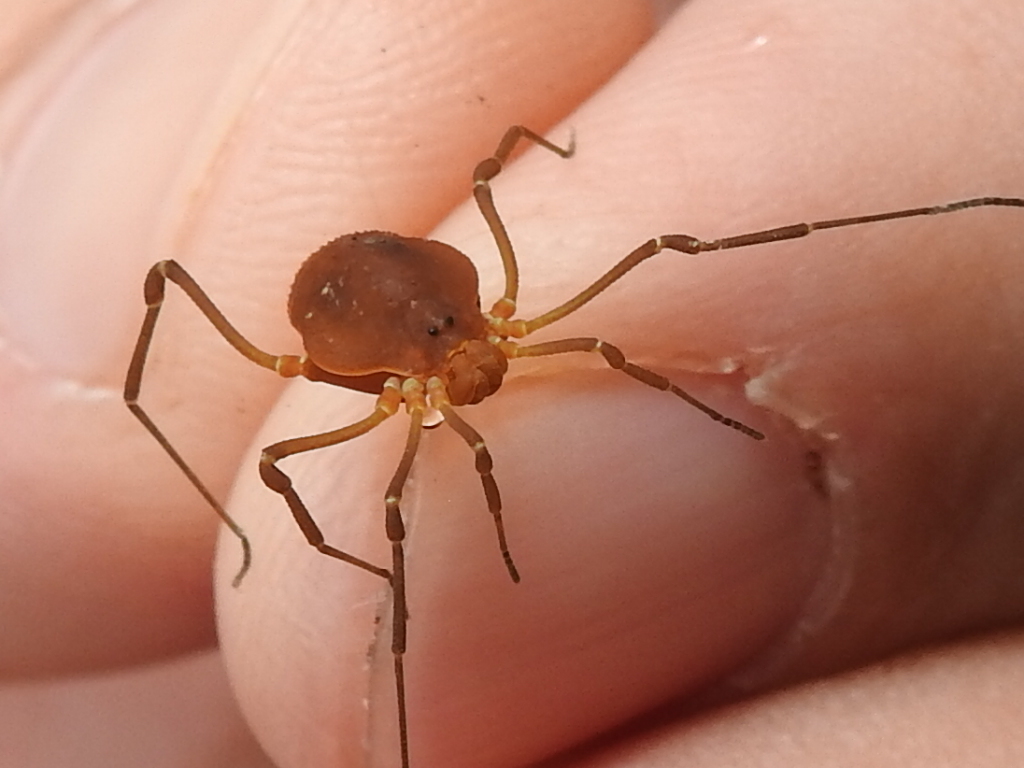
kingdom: Animalia
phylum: Arthropoda
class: Arachnida
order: Opiliones
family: Cosmetidae
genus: Libitioides
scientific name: Libitioides sayi
